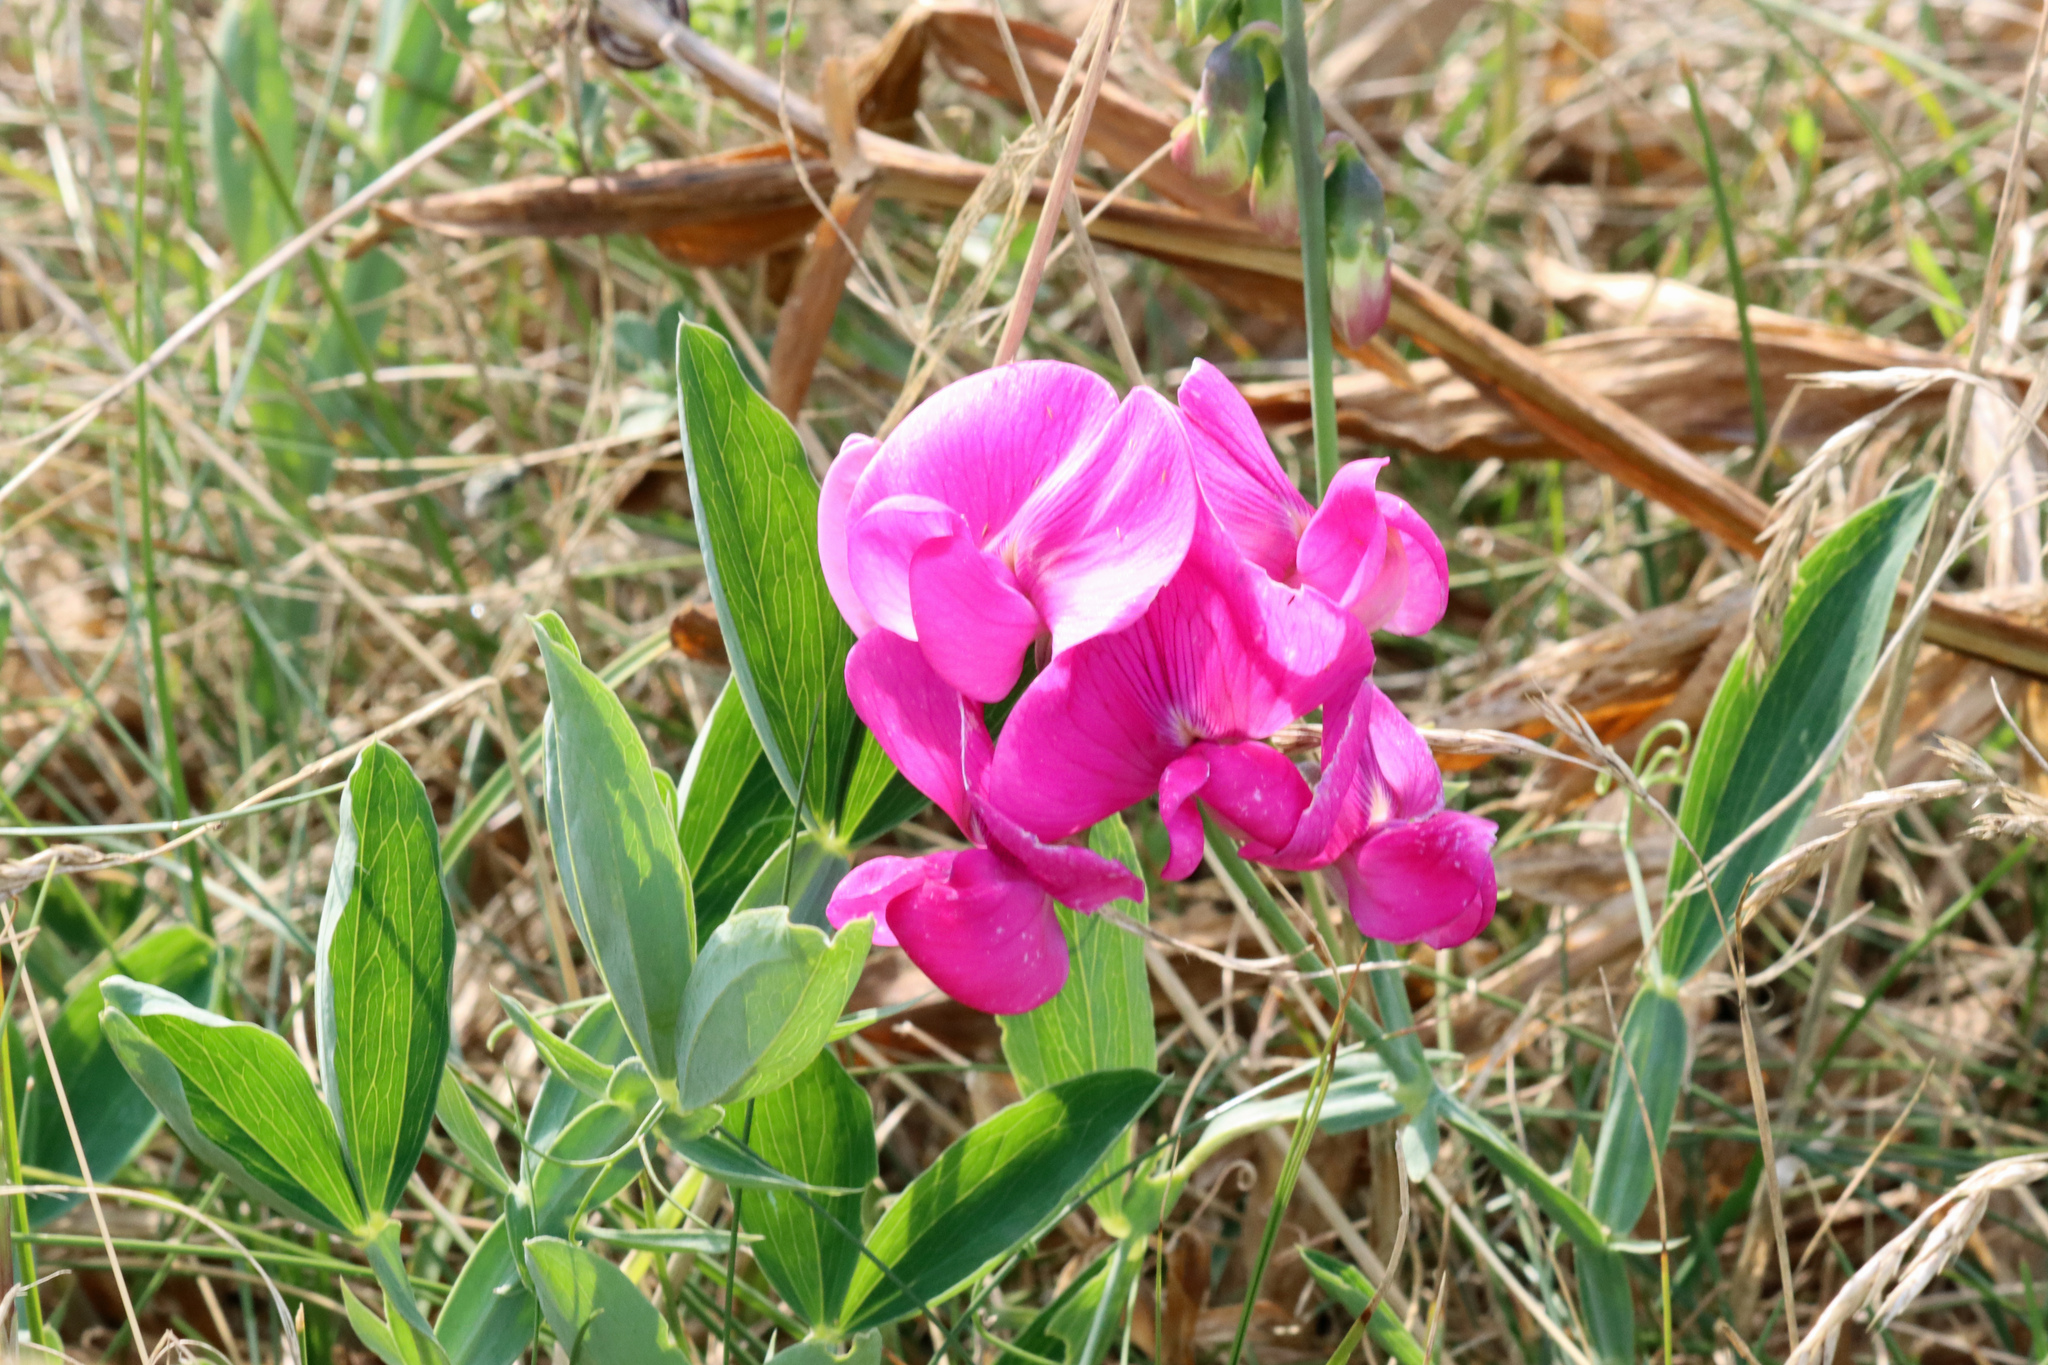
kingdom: Plantae
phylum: Tracheophyta
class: Magnoliopsida
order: Fabales
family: Fabaceae
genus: Lathyrus
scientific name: Lathyrus latifolius
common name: Perennial pea
